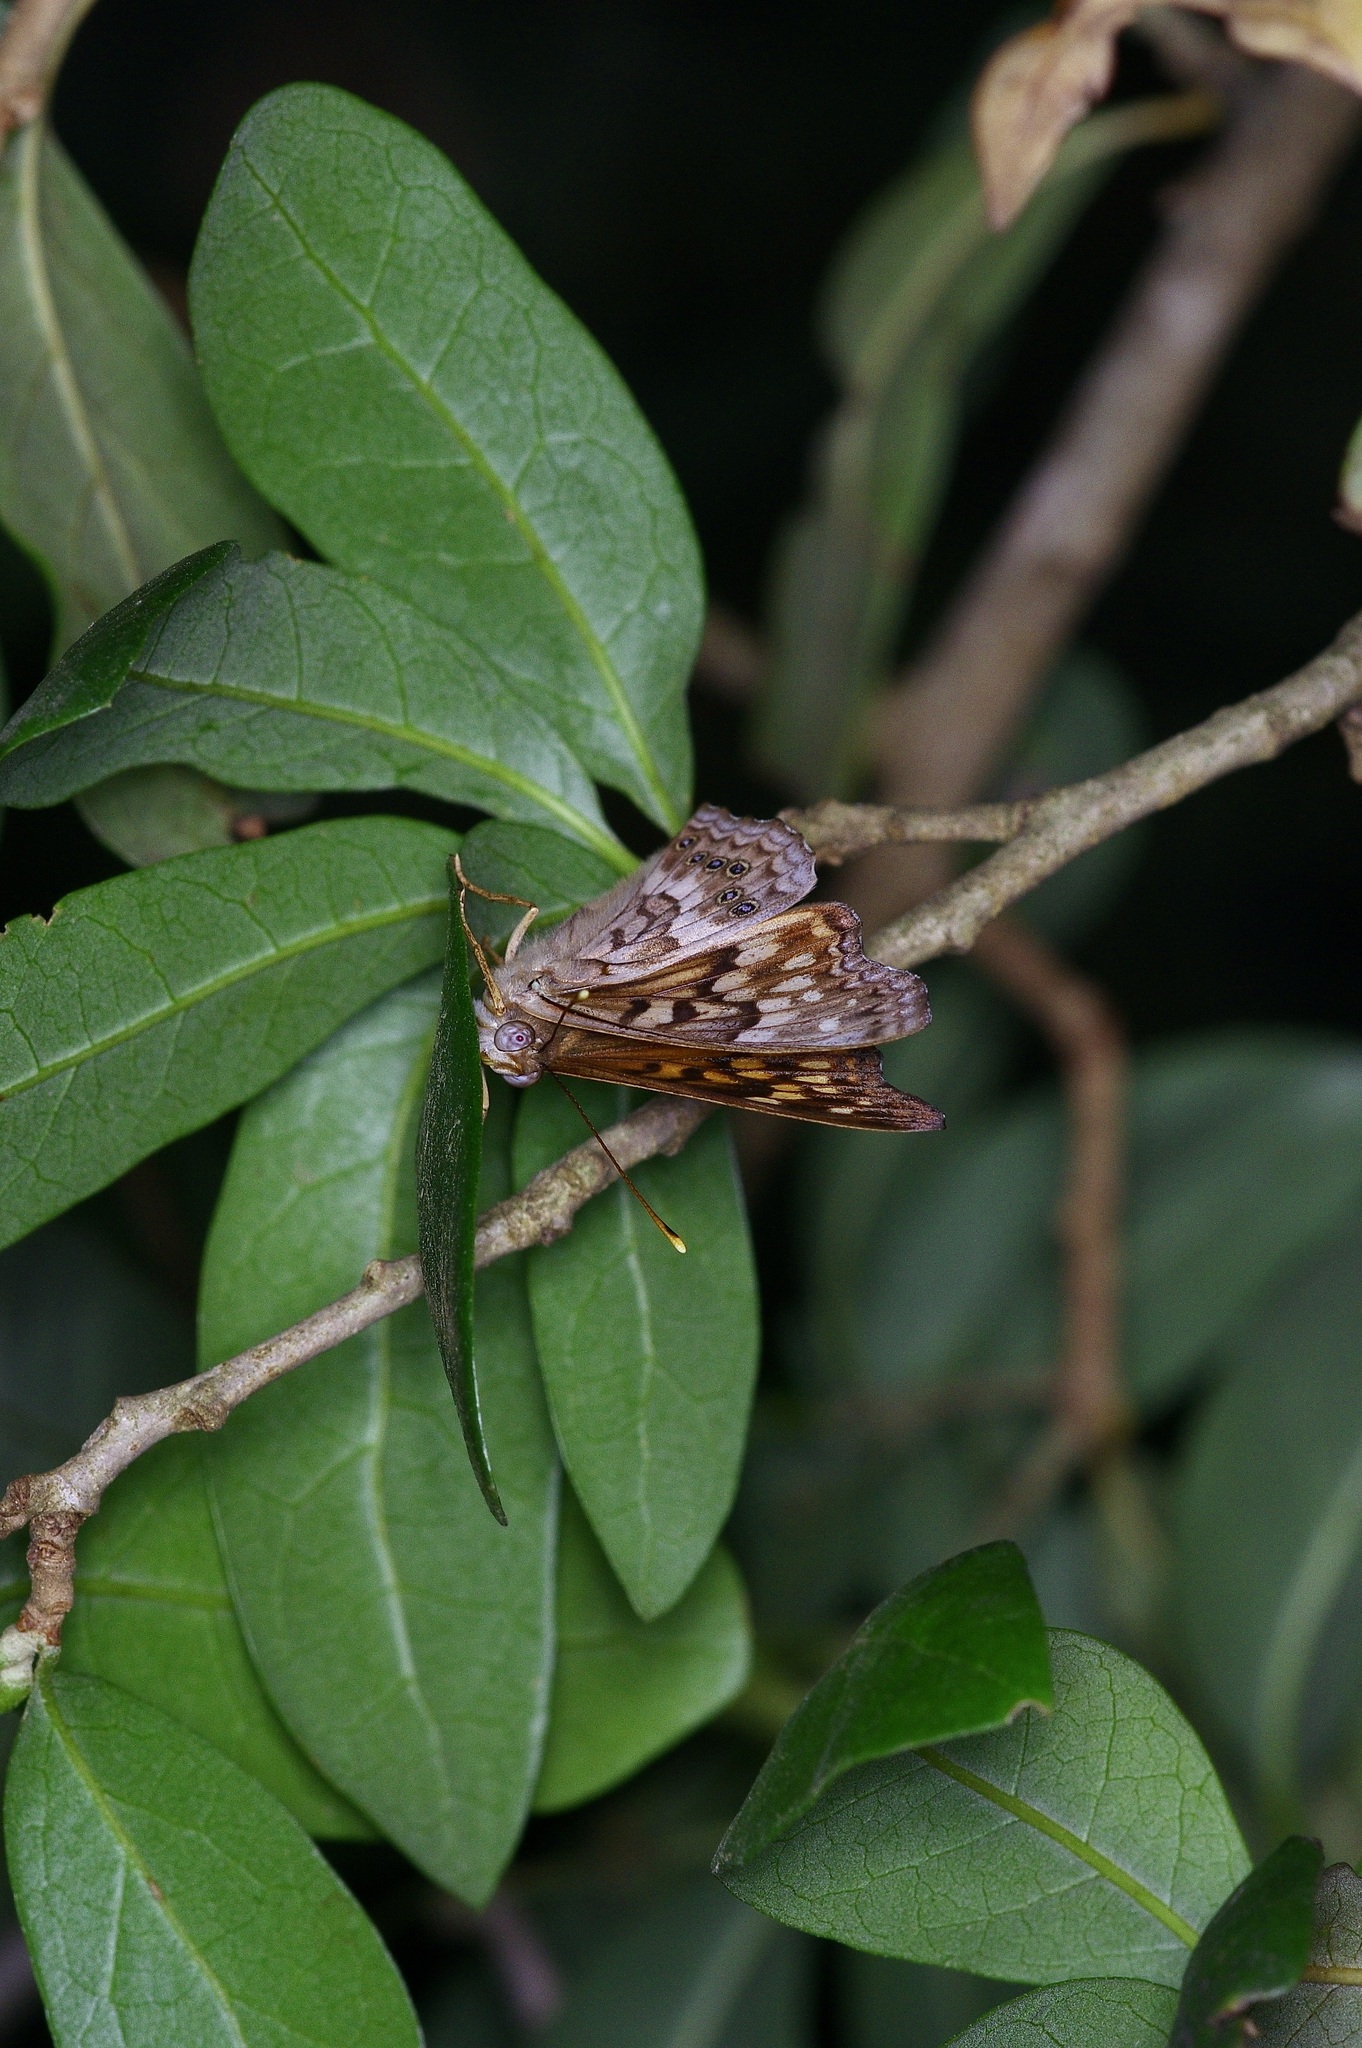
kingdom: Animalia
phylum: Arthropoda
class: Insecta
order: Lepidoptera
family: Nymphalidae
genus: Asterocampa
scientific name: Asterocampa clyton
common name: Tawny emperor
